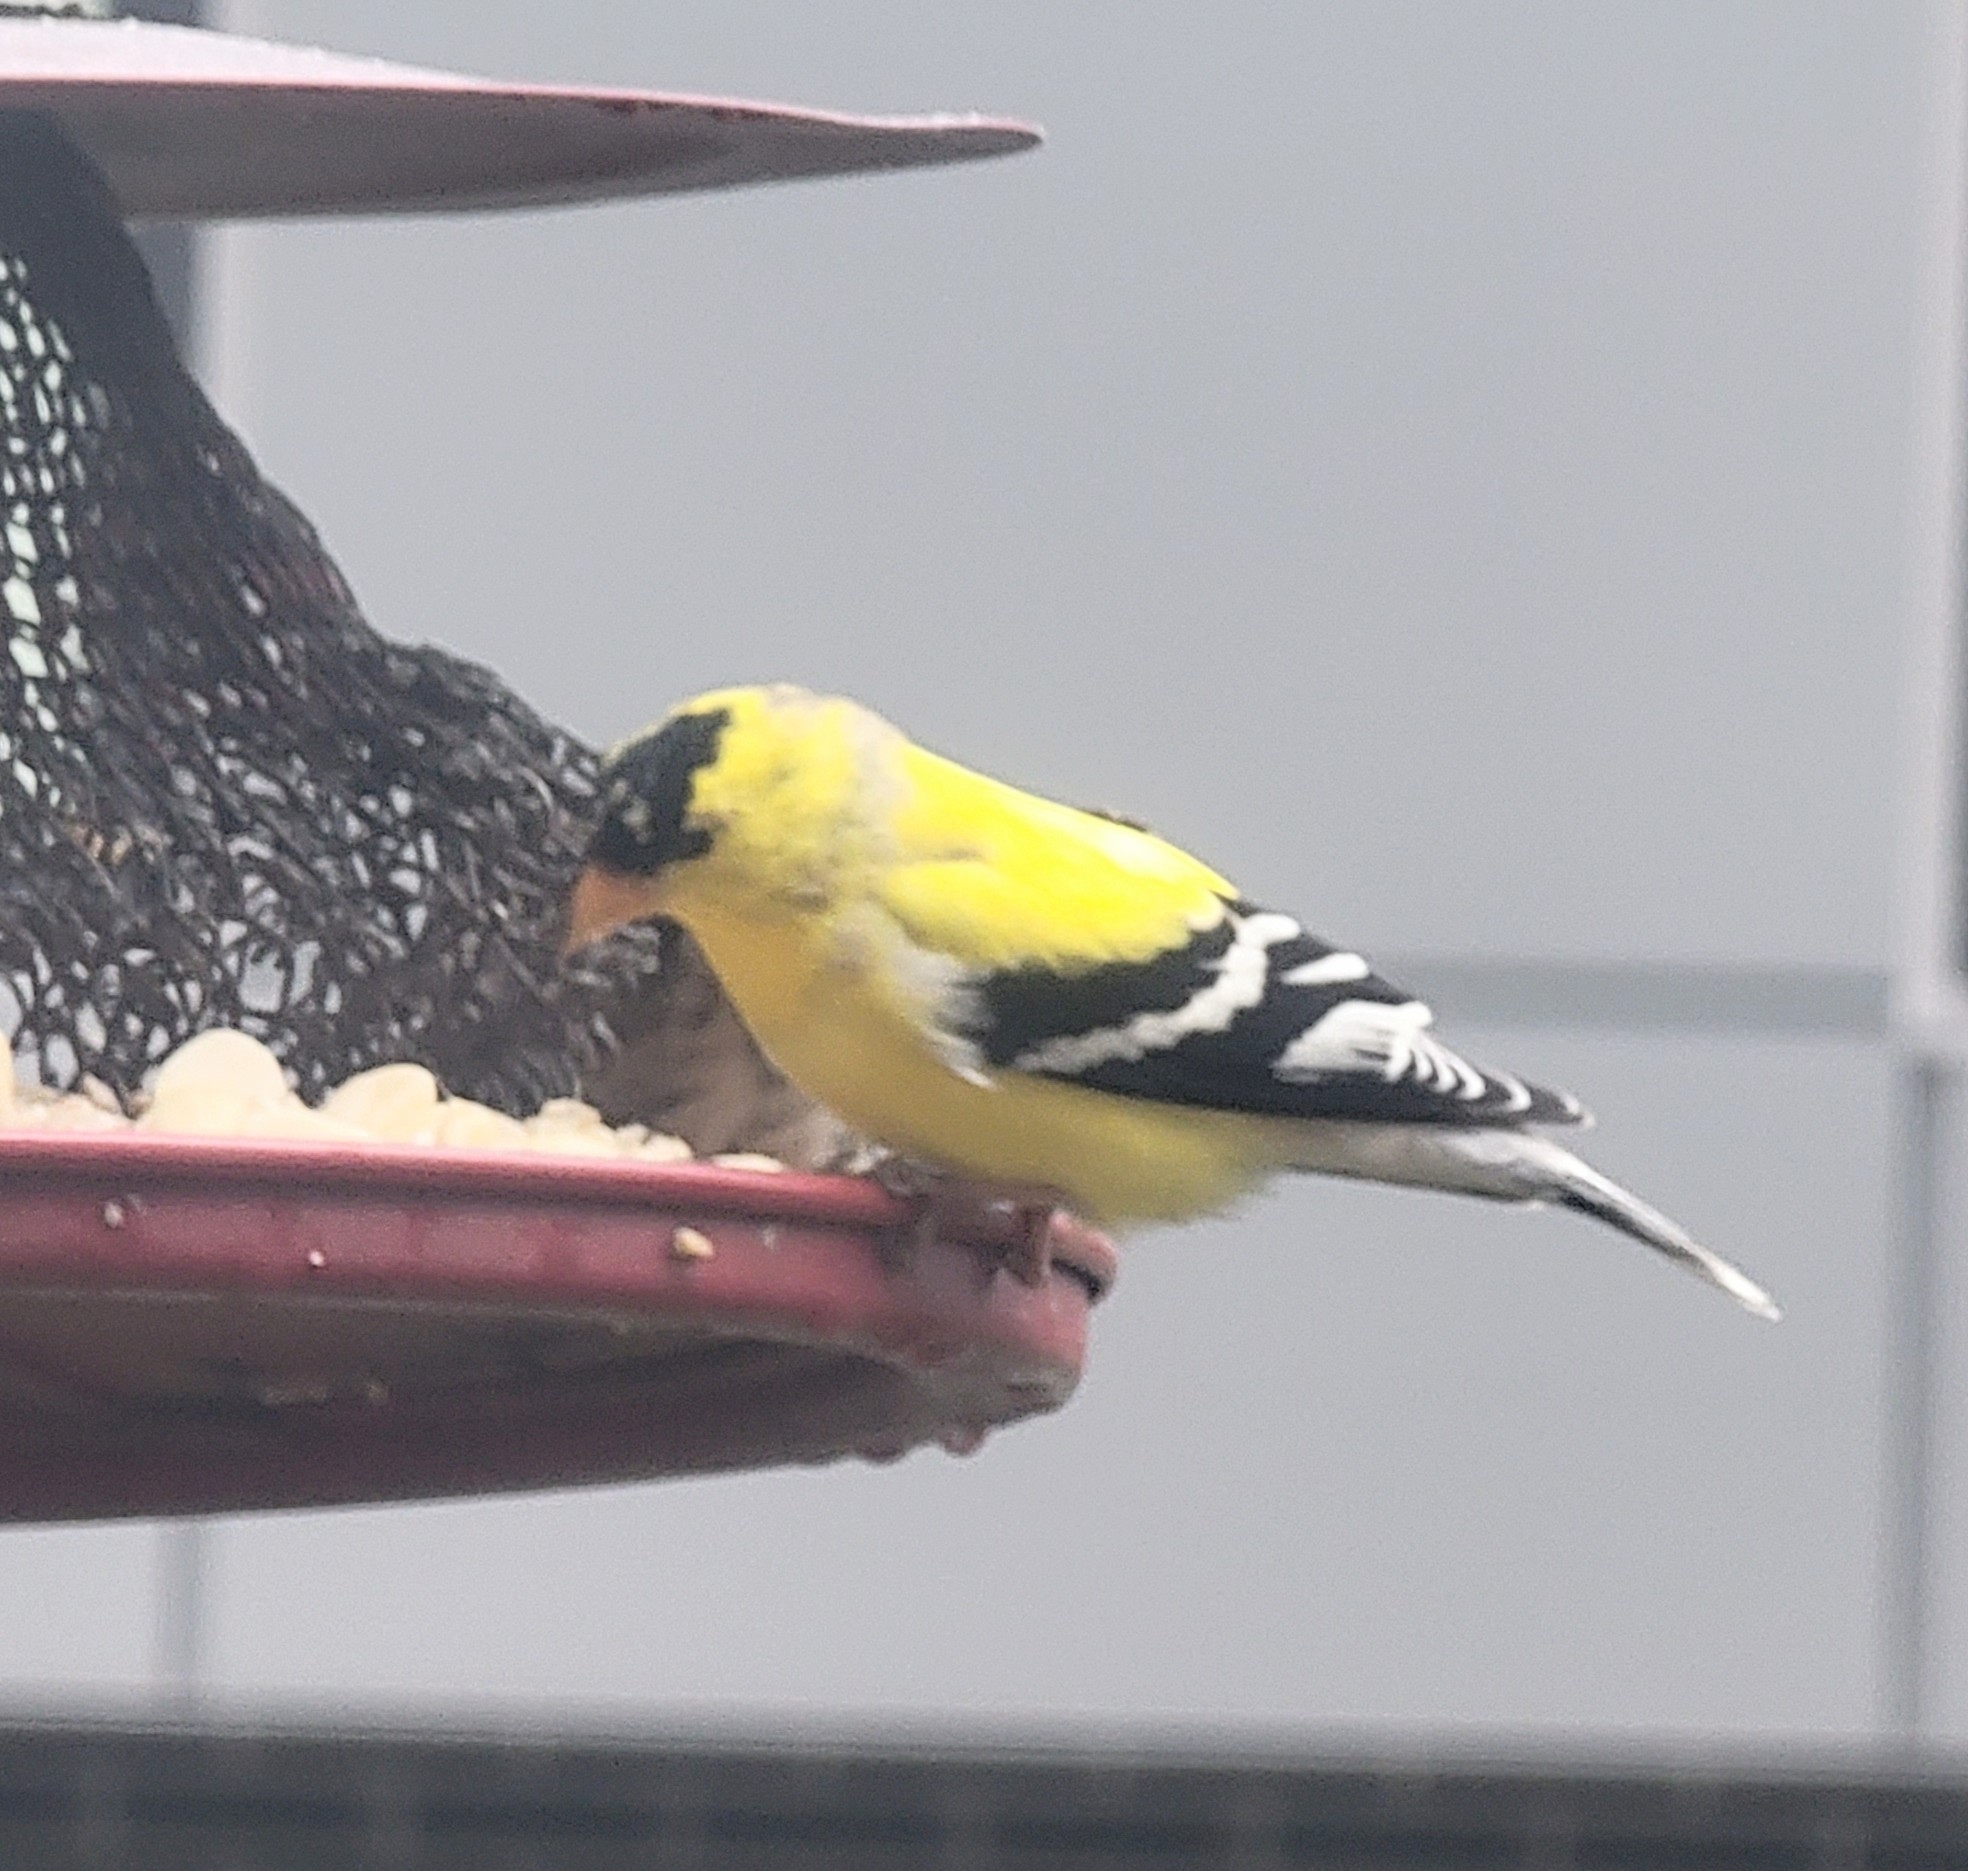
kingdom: Animalia
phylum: Chordata
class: Aves
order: Passeriformes
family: Fringillidae
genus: Spinus
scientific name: Spinus tristis
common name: American goldfinch
